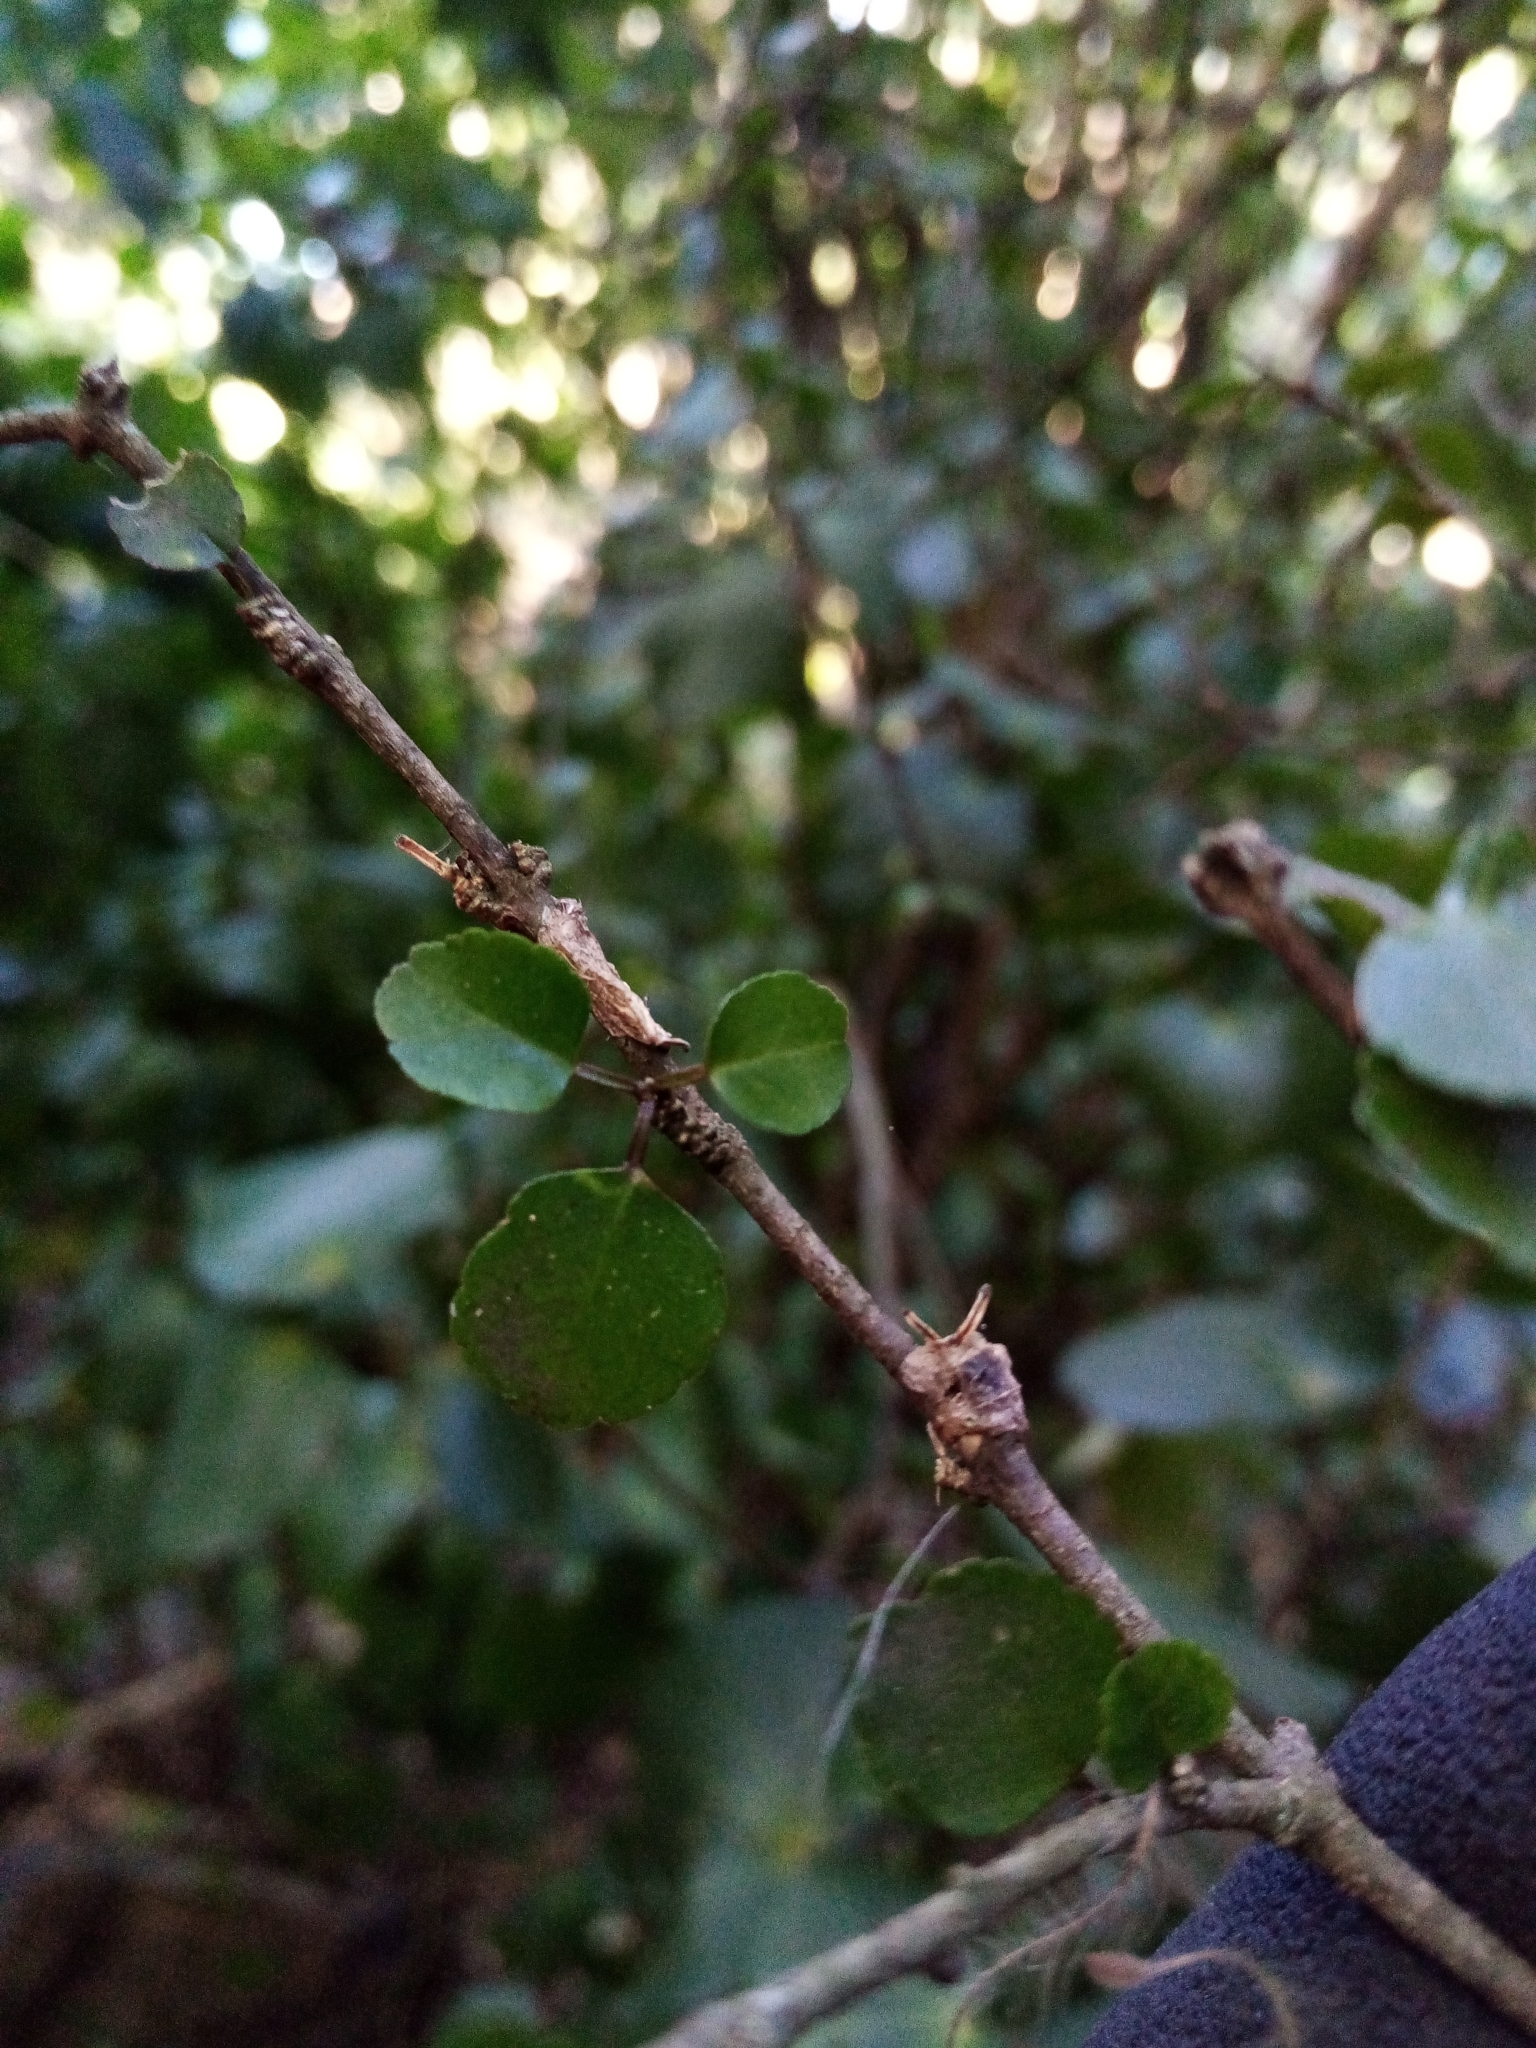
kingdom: Plantae
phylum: Tracheophyta
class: Magnoliopsida
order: Sapindales
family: Rutaceae
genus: Melicope
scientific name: Melicope simplex
